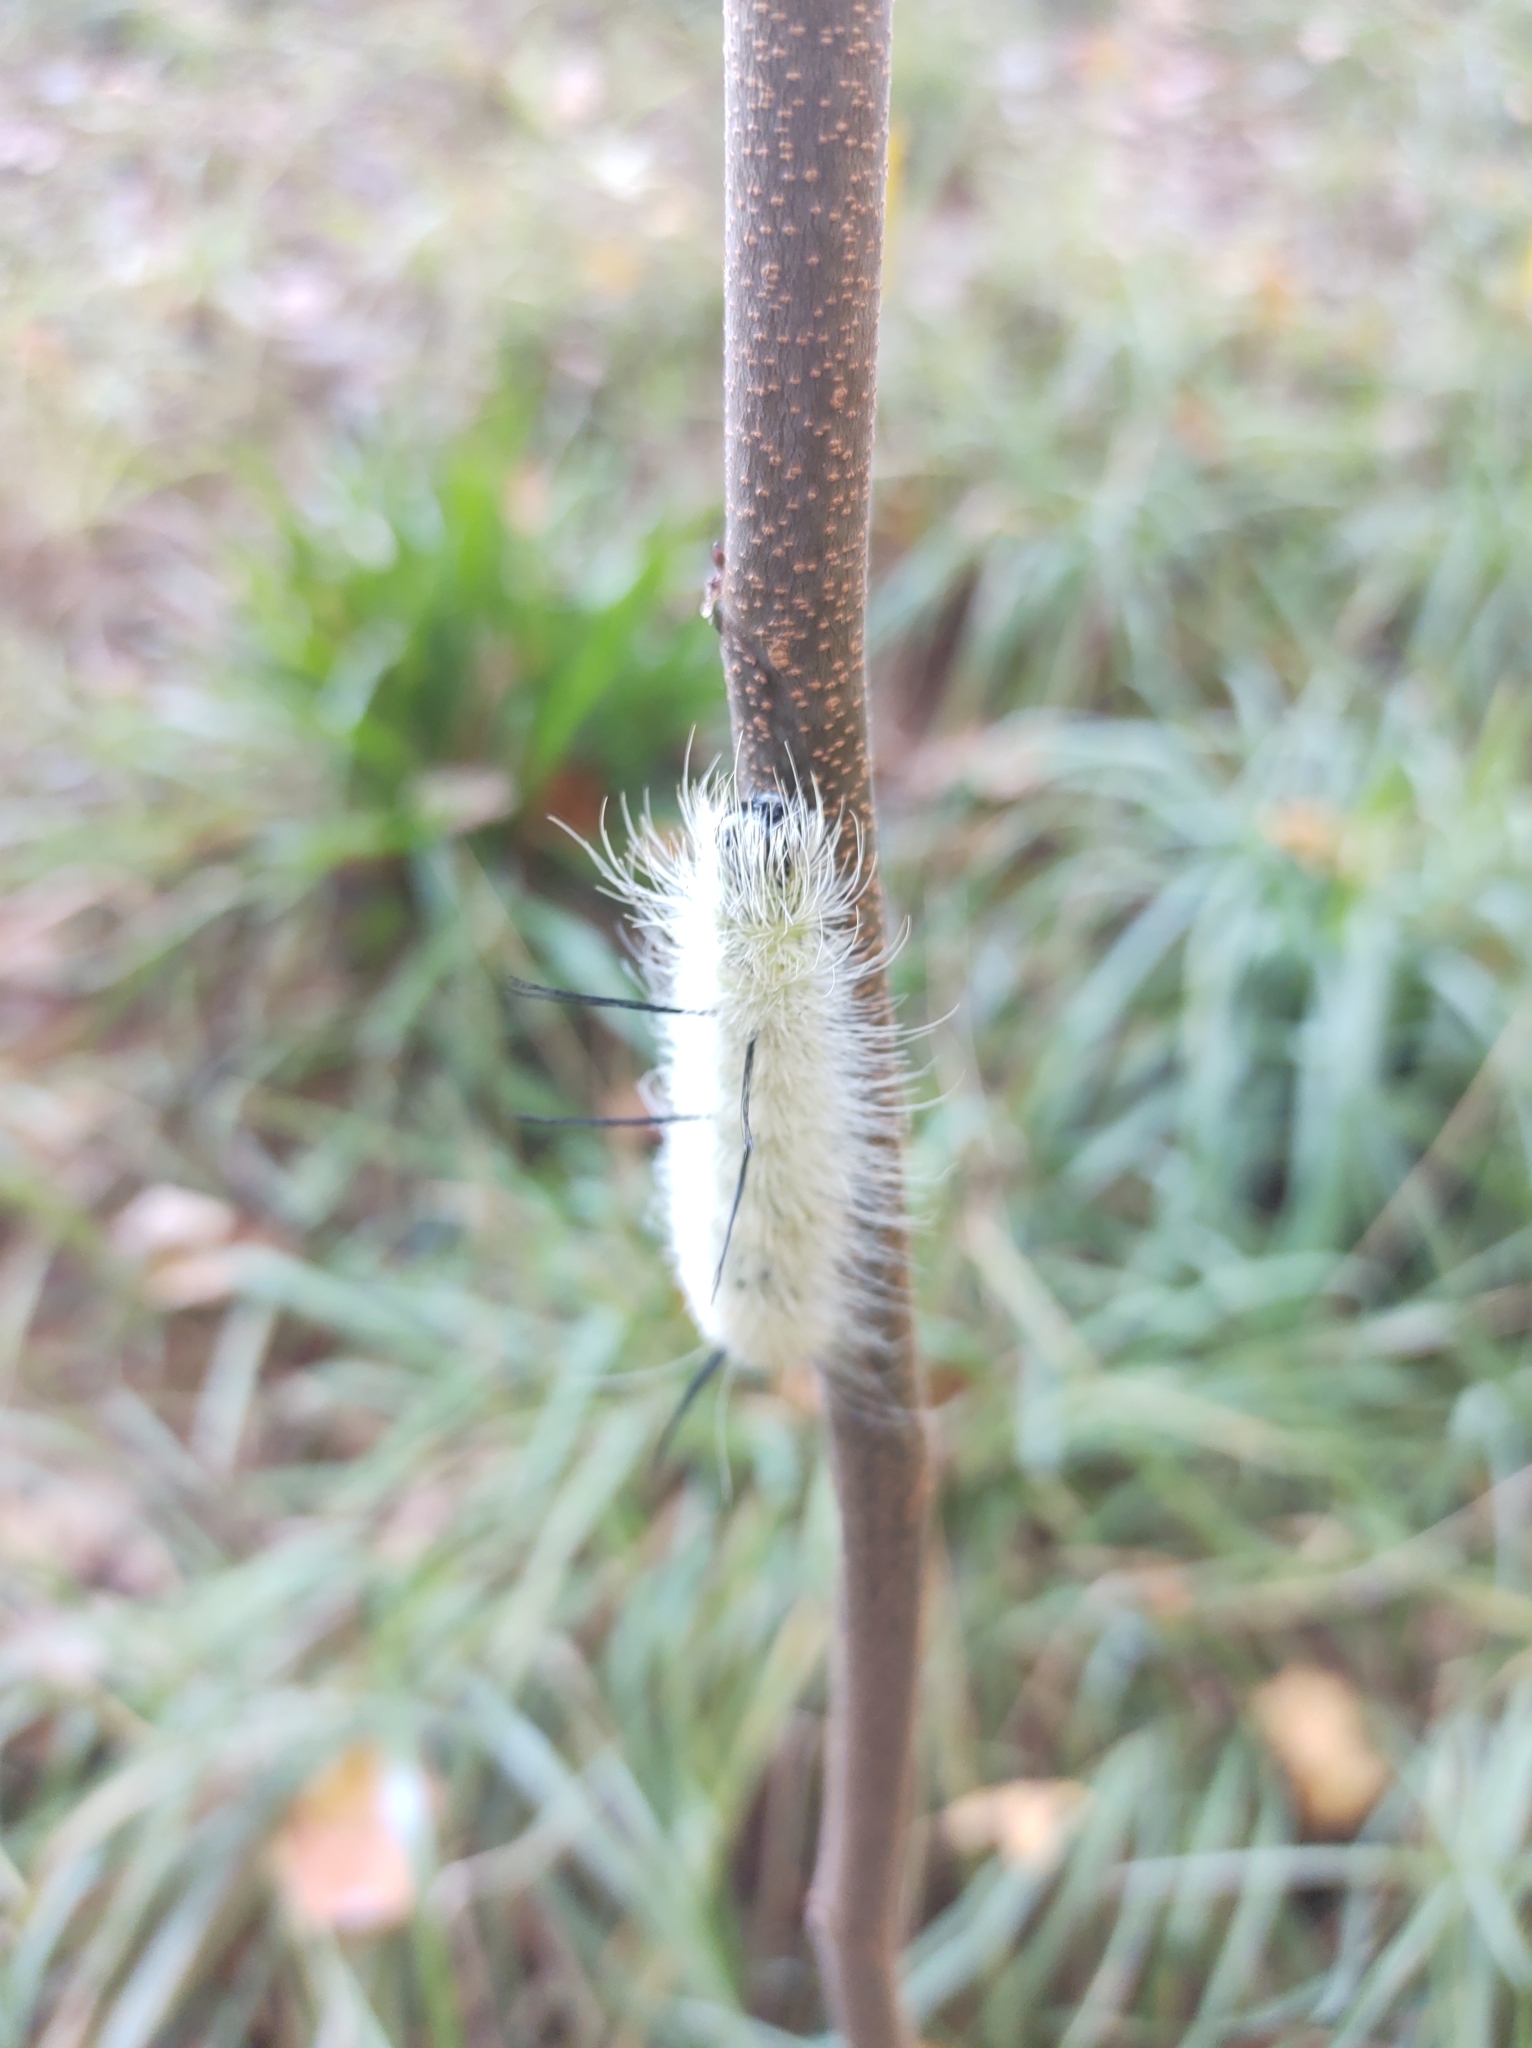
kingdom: Animalia
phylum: Arthropoda
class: Insecta
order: Lepidoptera
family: Noctuidae
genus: Acronicta
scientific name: Acronicta americana
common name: American dagger
